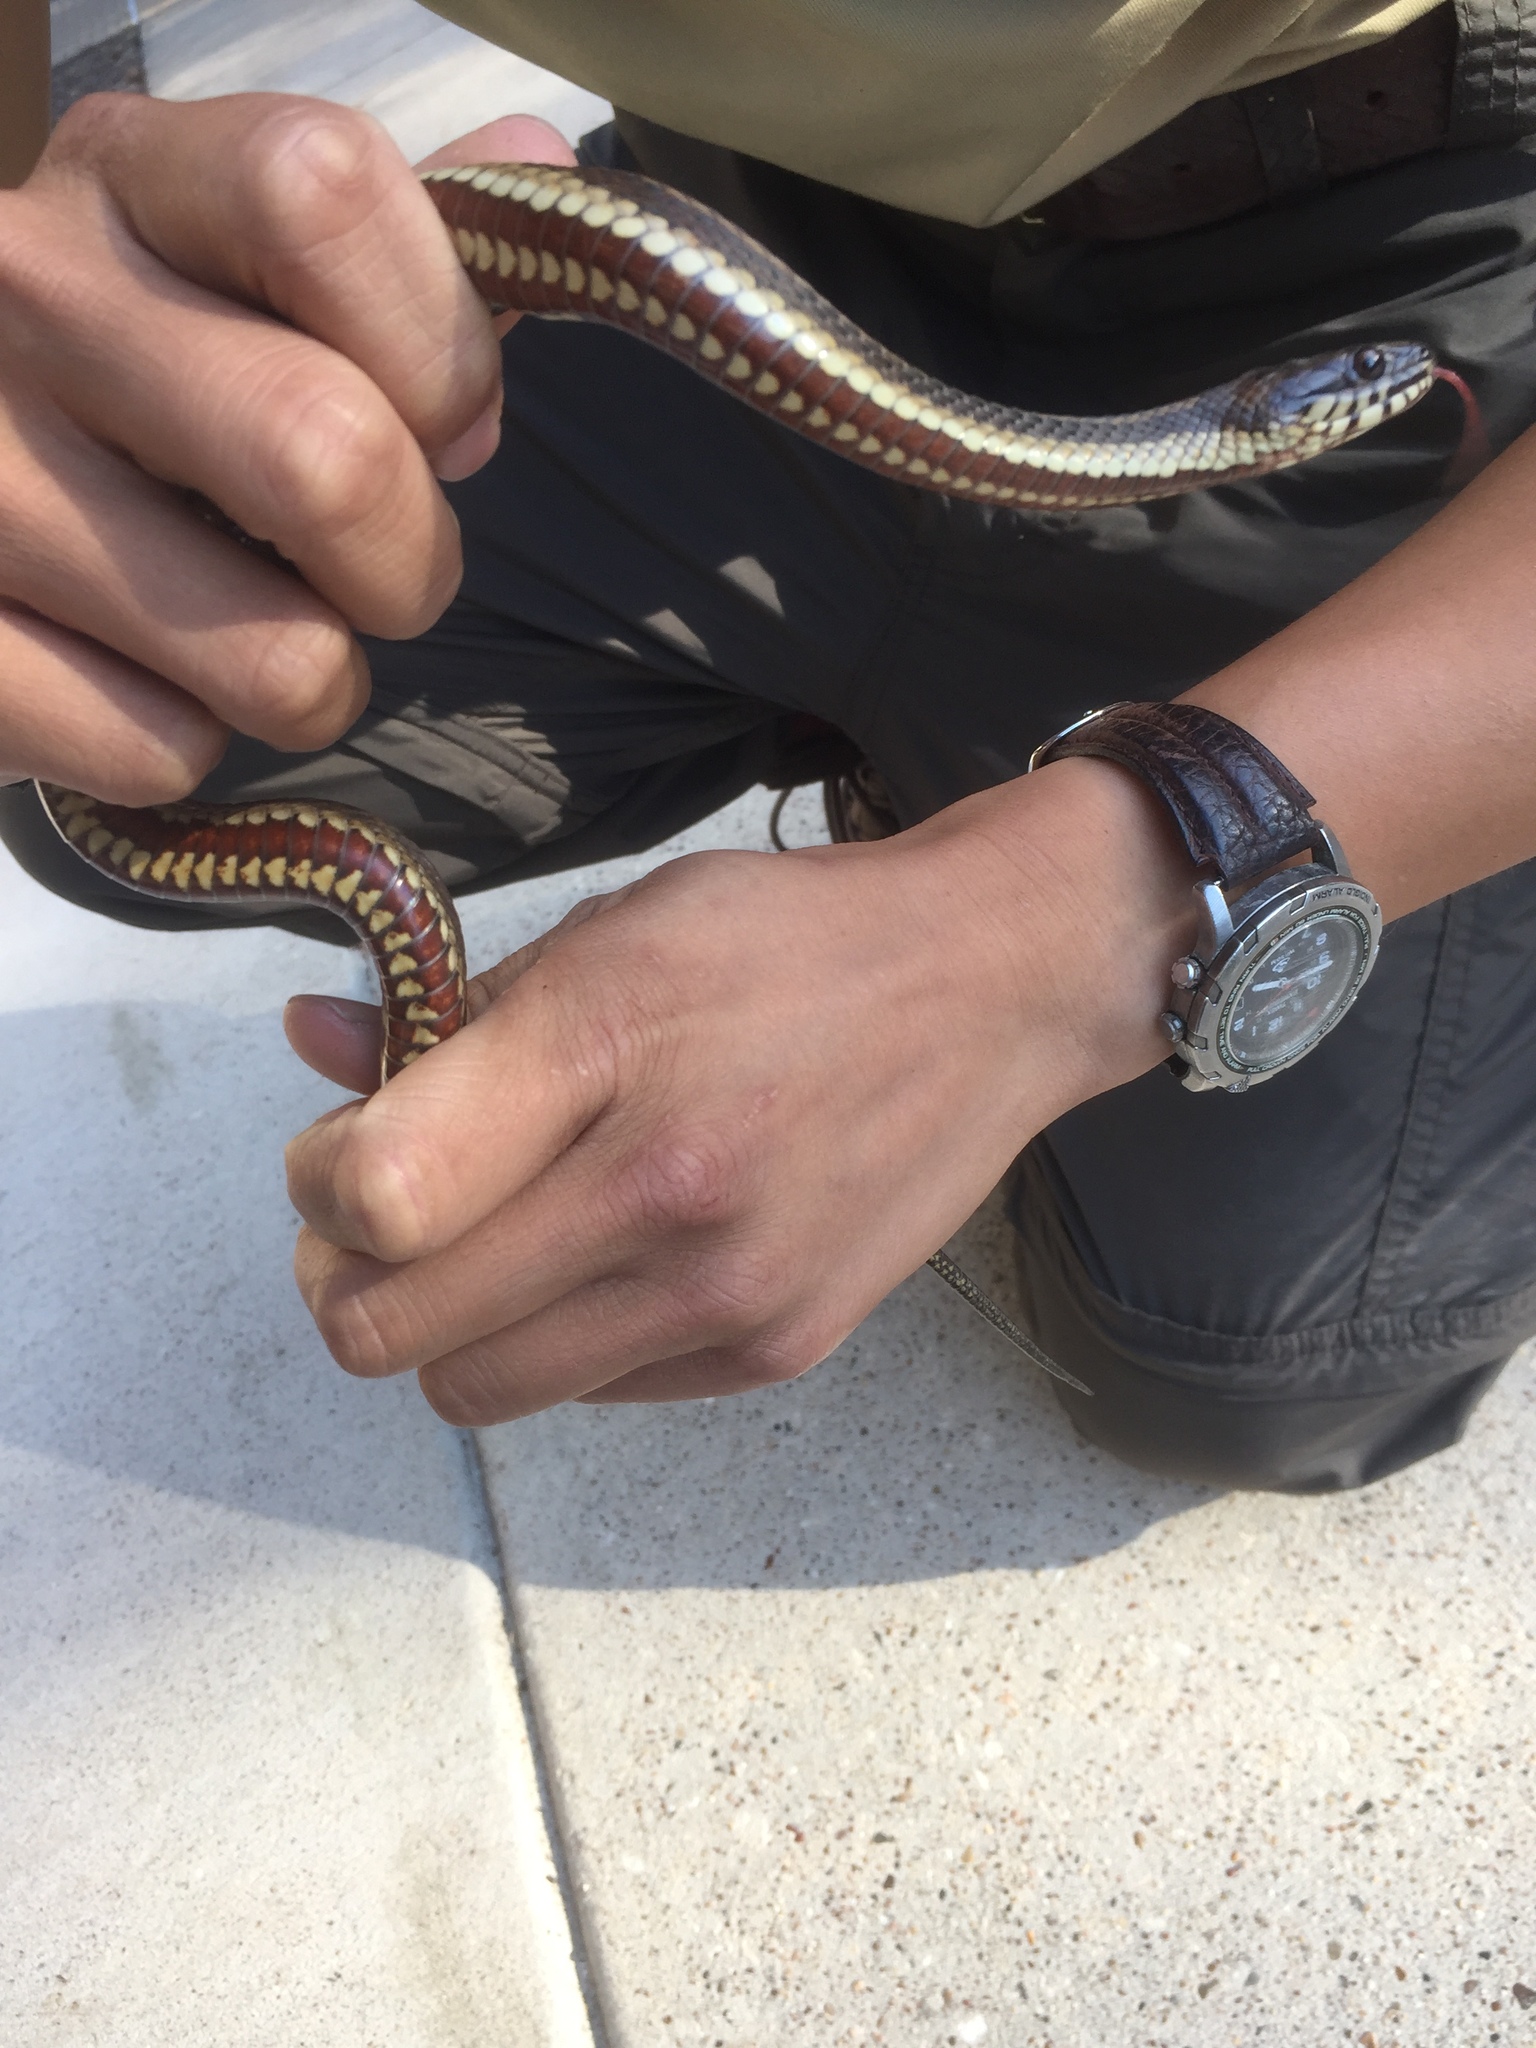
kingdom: Animalia
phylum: Chordata
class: Squamata
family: Colubridae
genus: Nerodia
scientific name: Nerodia clarkii
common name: Atlantic saltmarsh snake
